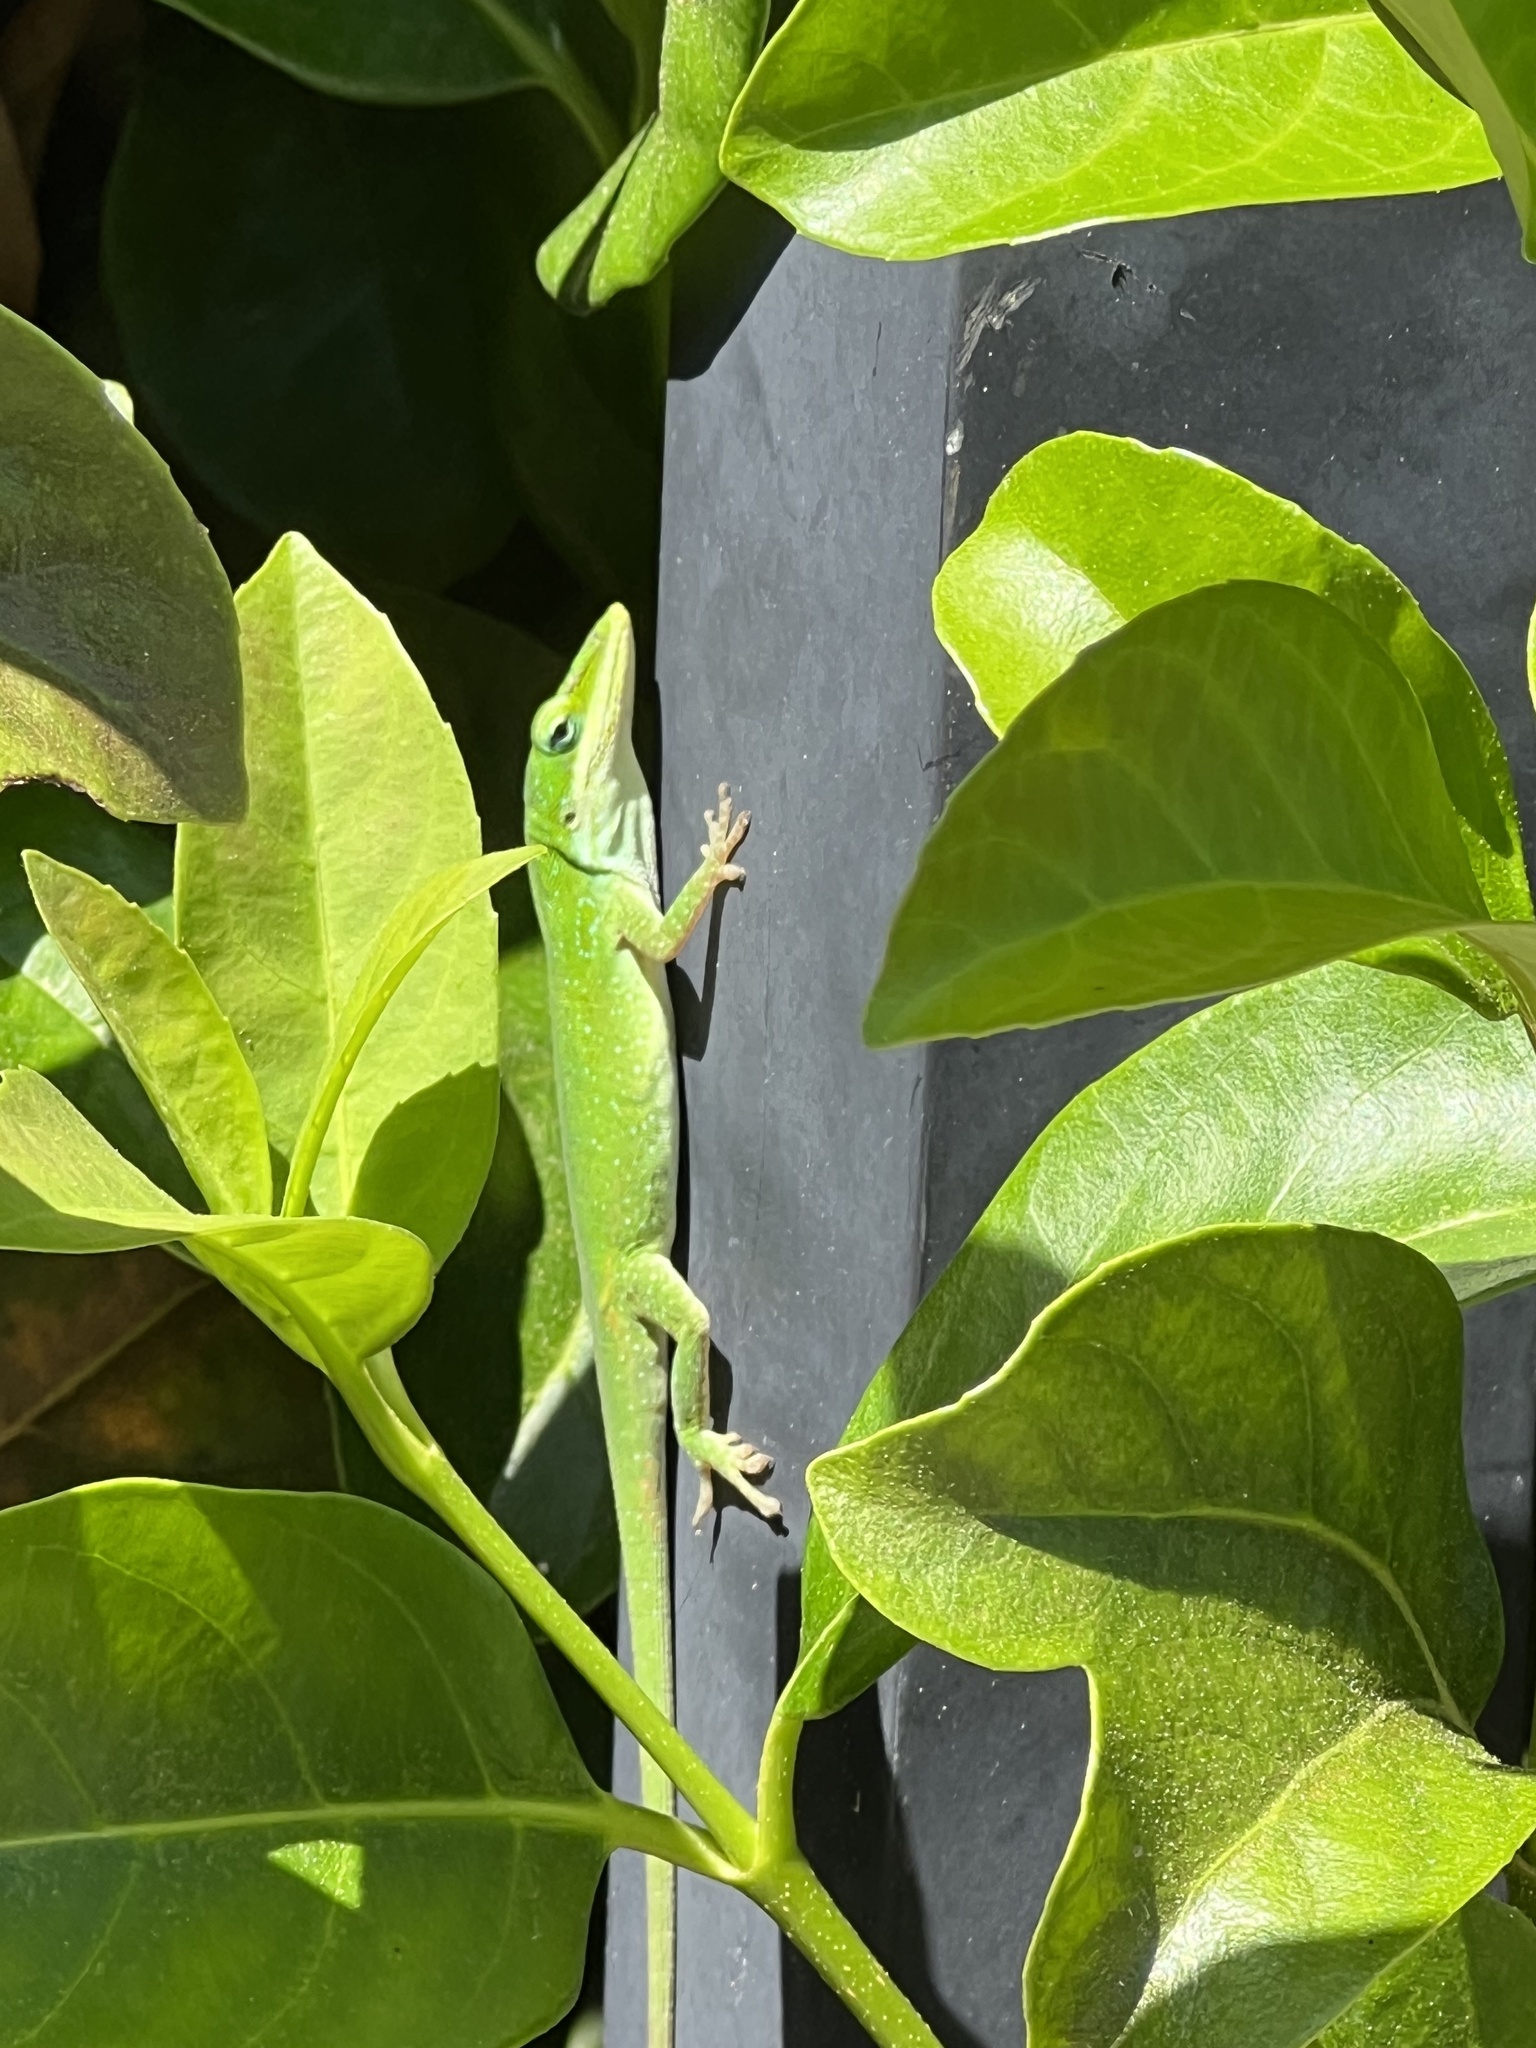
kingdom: Animalia
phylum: Chordata
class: Squamata
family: Dactyloidae
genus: Anolis
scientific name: Anolis carolinensis
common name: Green anole
